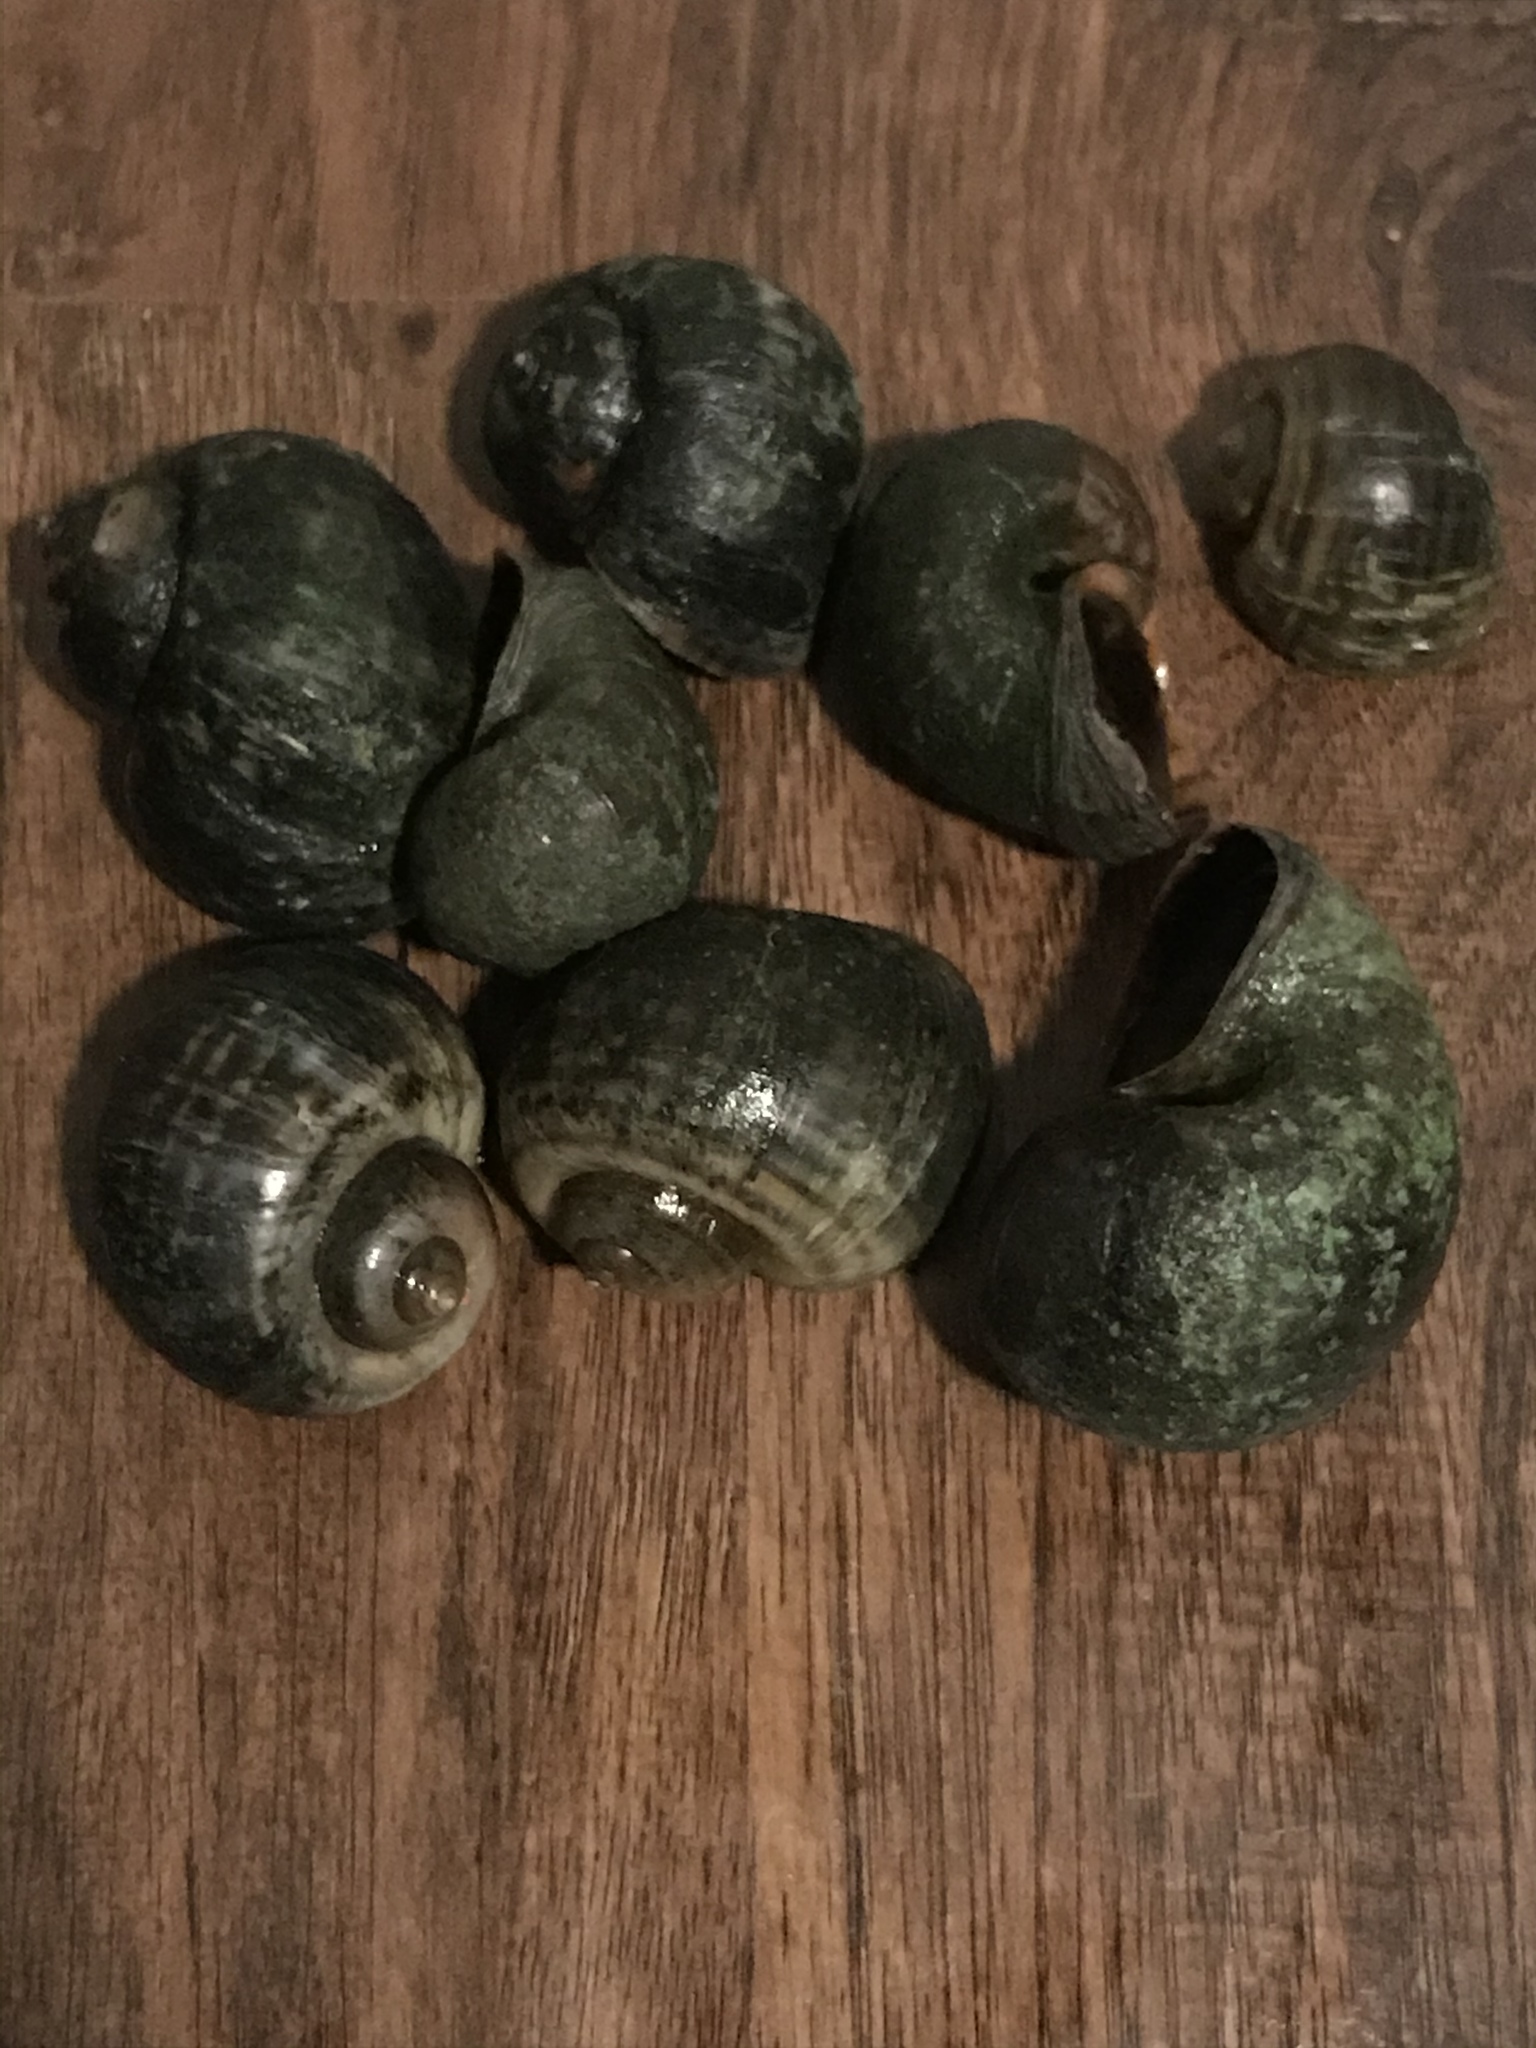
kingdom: Animalia
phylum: Mollusca
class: Gastropoda
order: Architaenioglossa
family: Ampullariidae
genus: Pomacea
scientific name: Pomacea canaliculata
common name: Channeled applesnail
